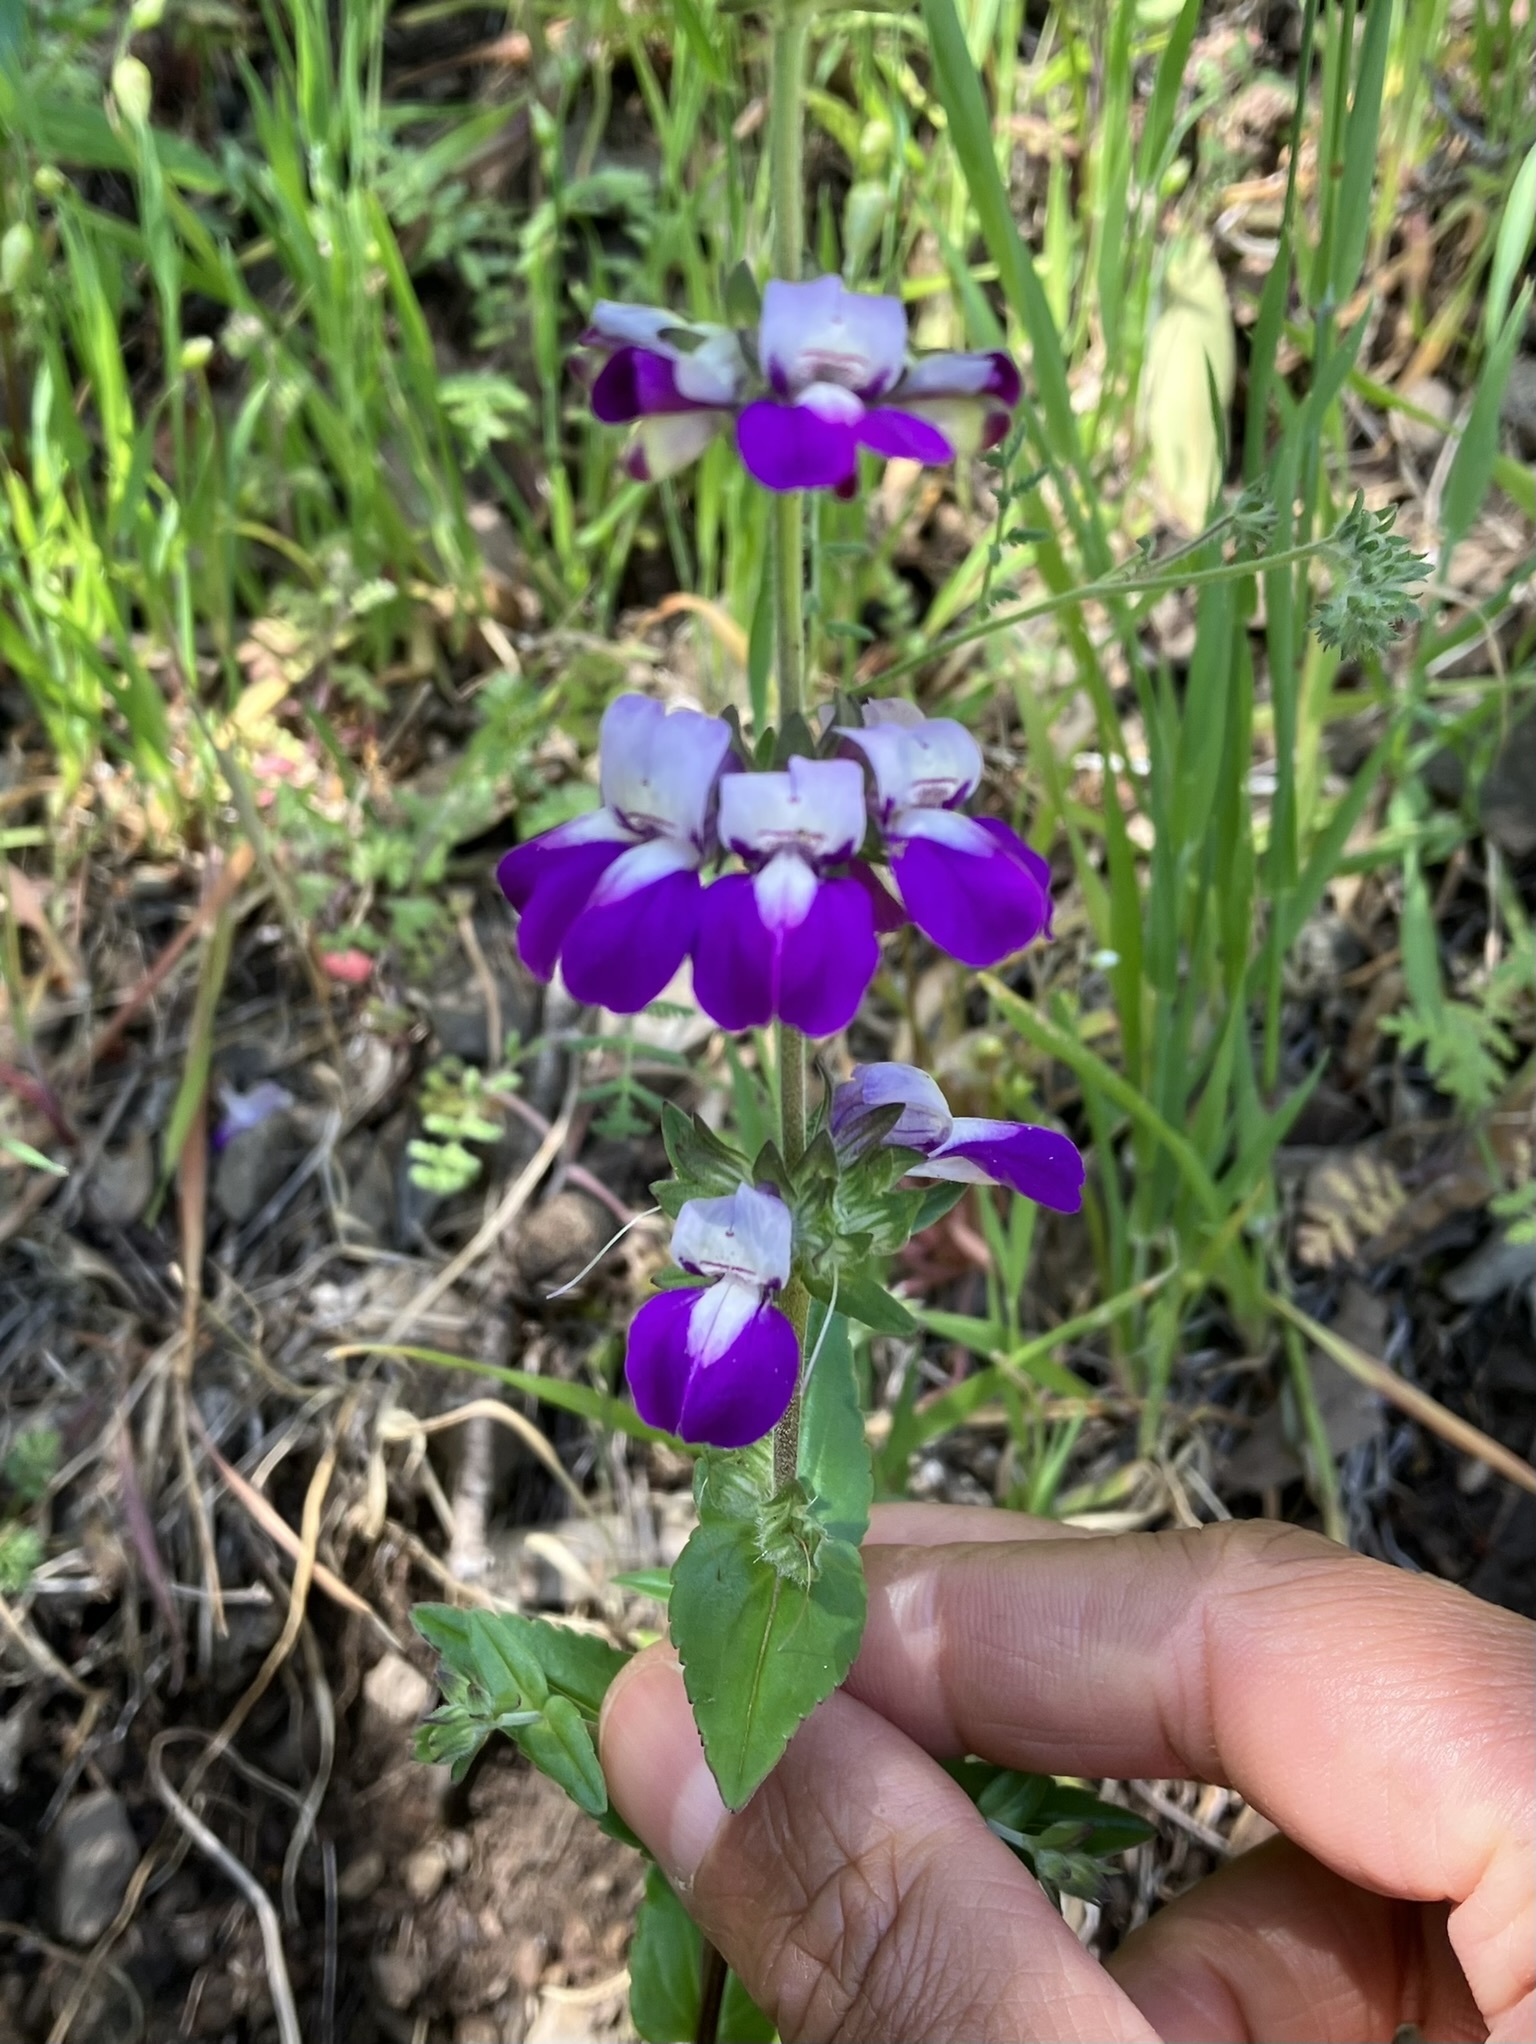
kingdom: Plantae
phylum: Tracheophyta
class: Magnoliopsida
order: Lamiales
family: Plantaginaceae
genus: Collinsia
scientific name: Collinsia heterophylla
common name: Chinese-houses
